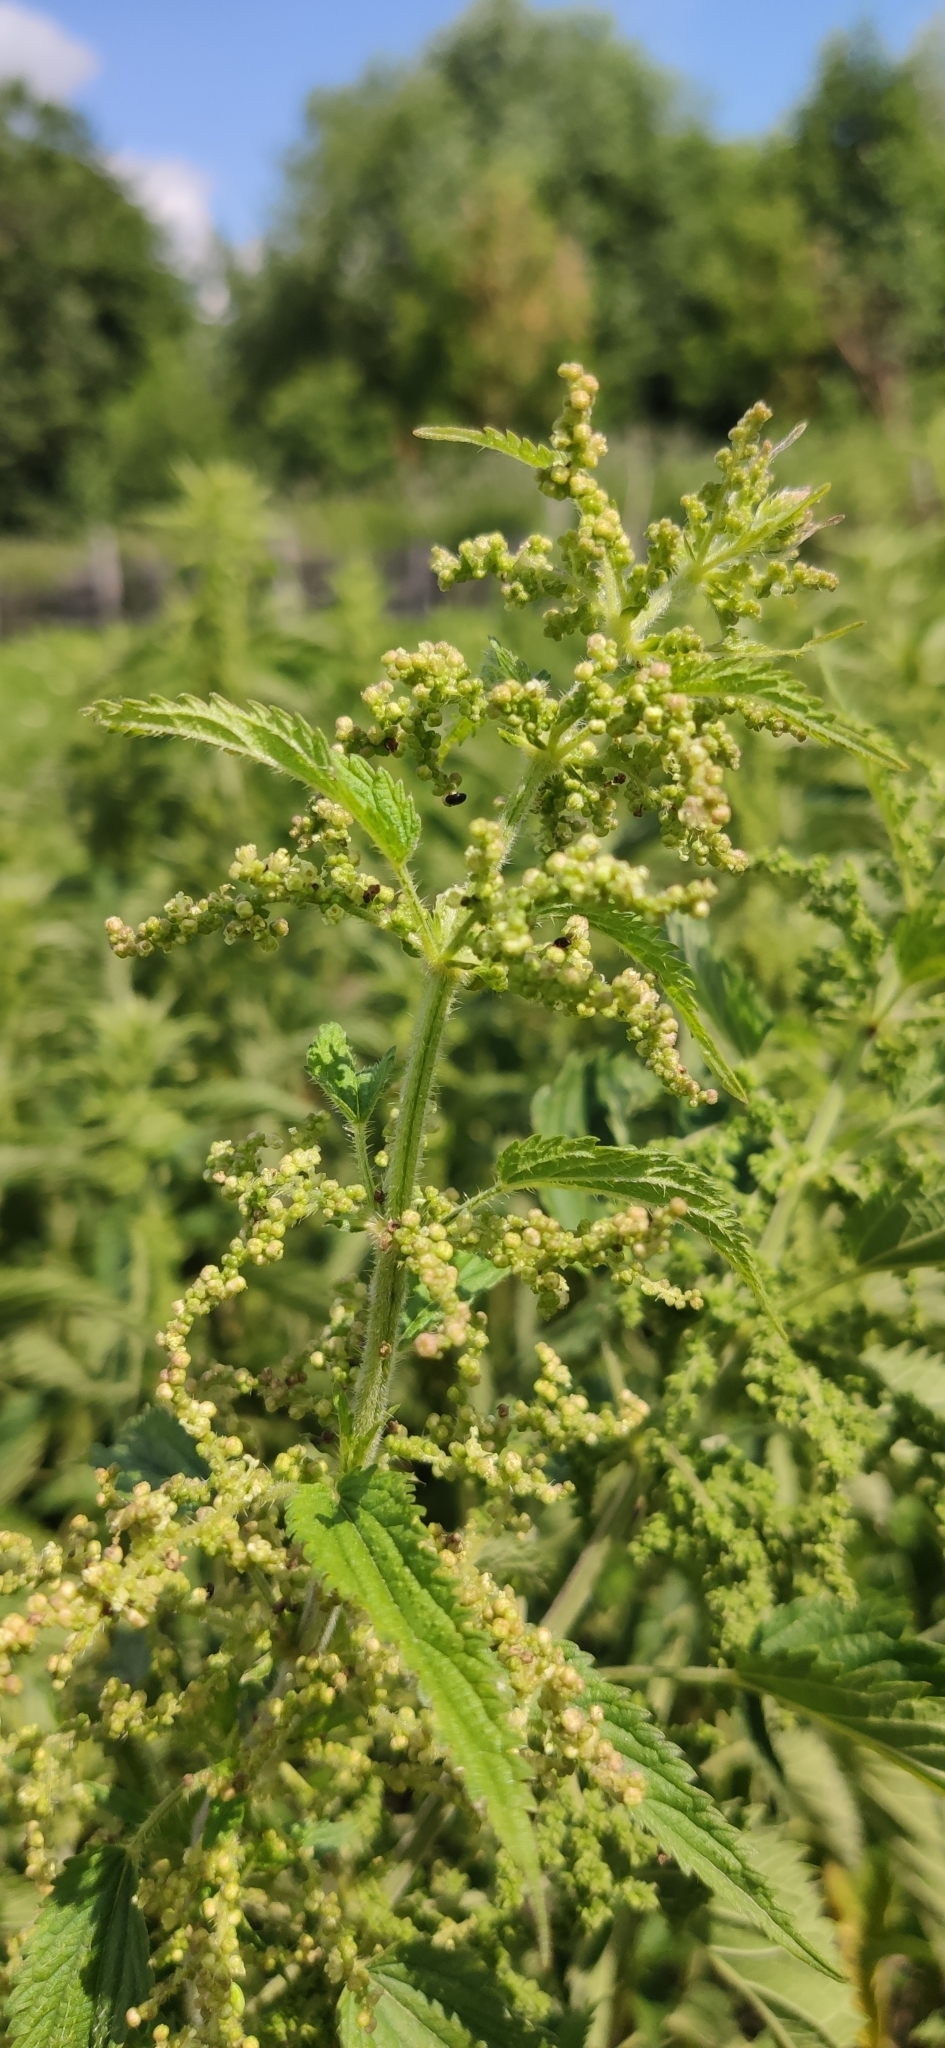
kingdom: Plantae
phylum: Tracheophyta
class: Magnoliopsida
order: Rosales
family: Urticaceae
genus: Urtica
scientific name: Urtica dioica
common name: Common nettle
